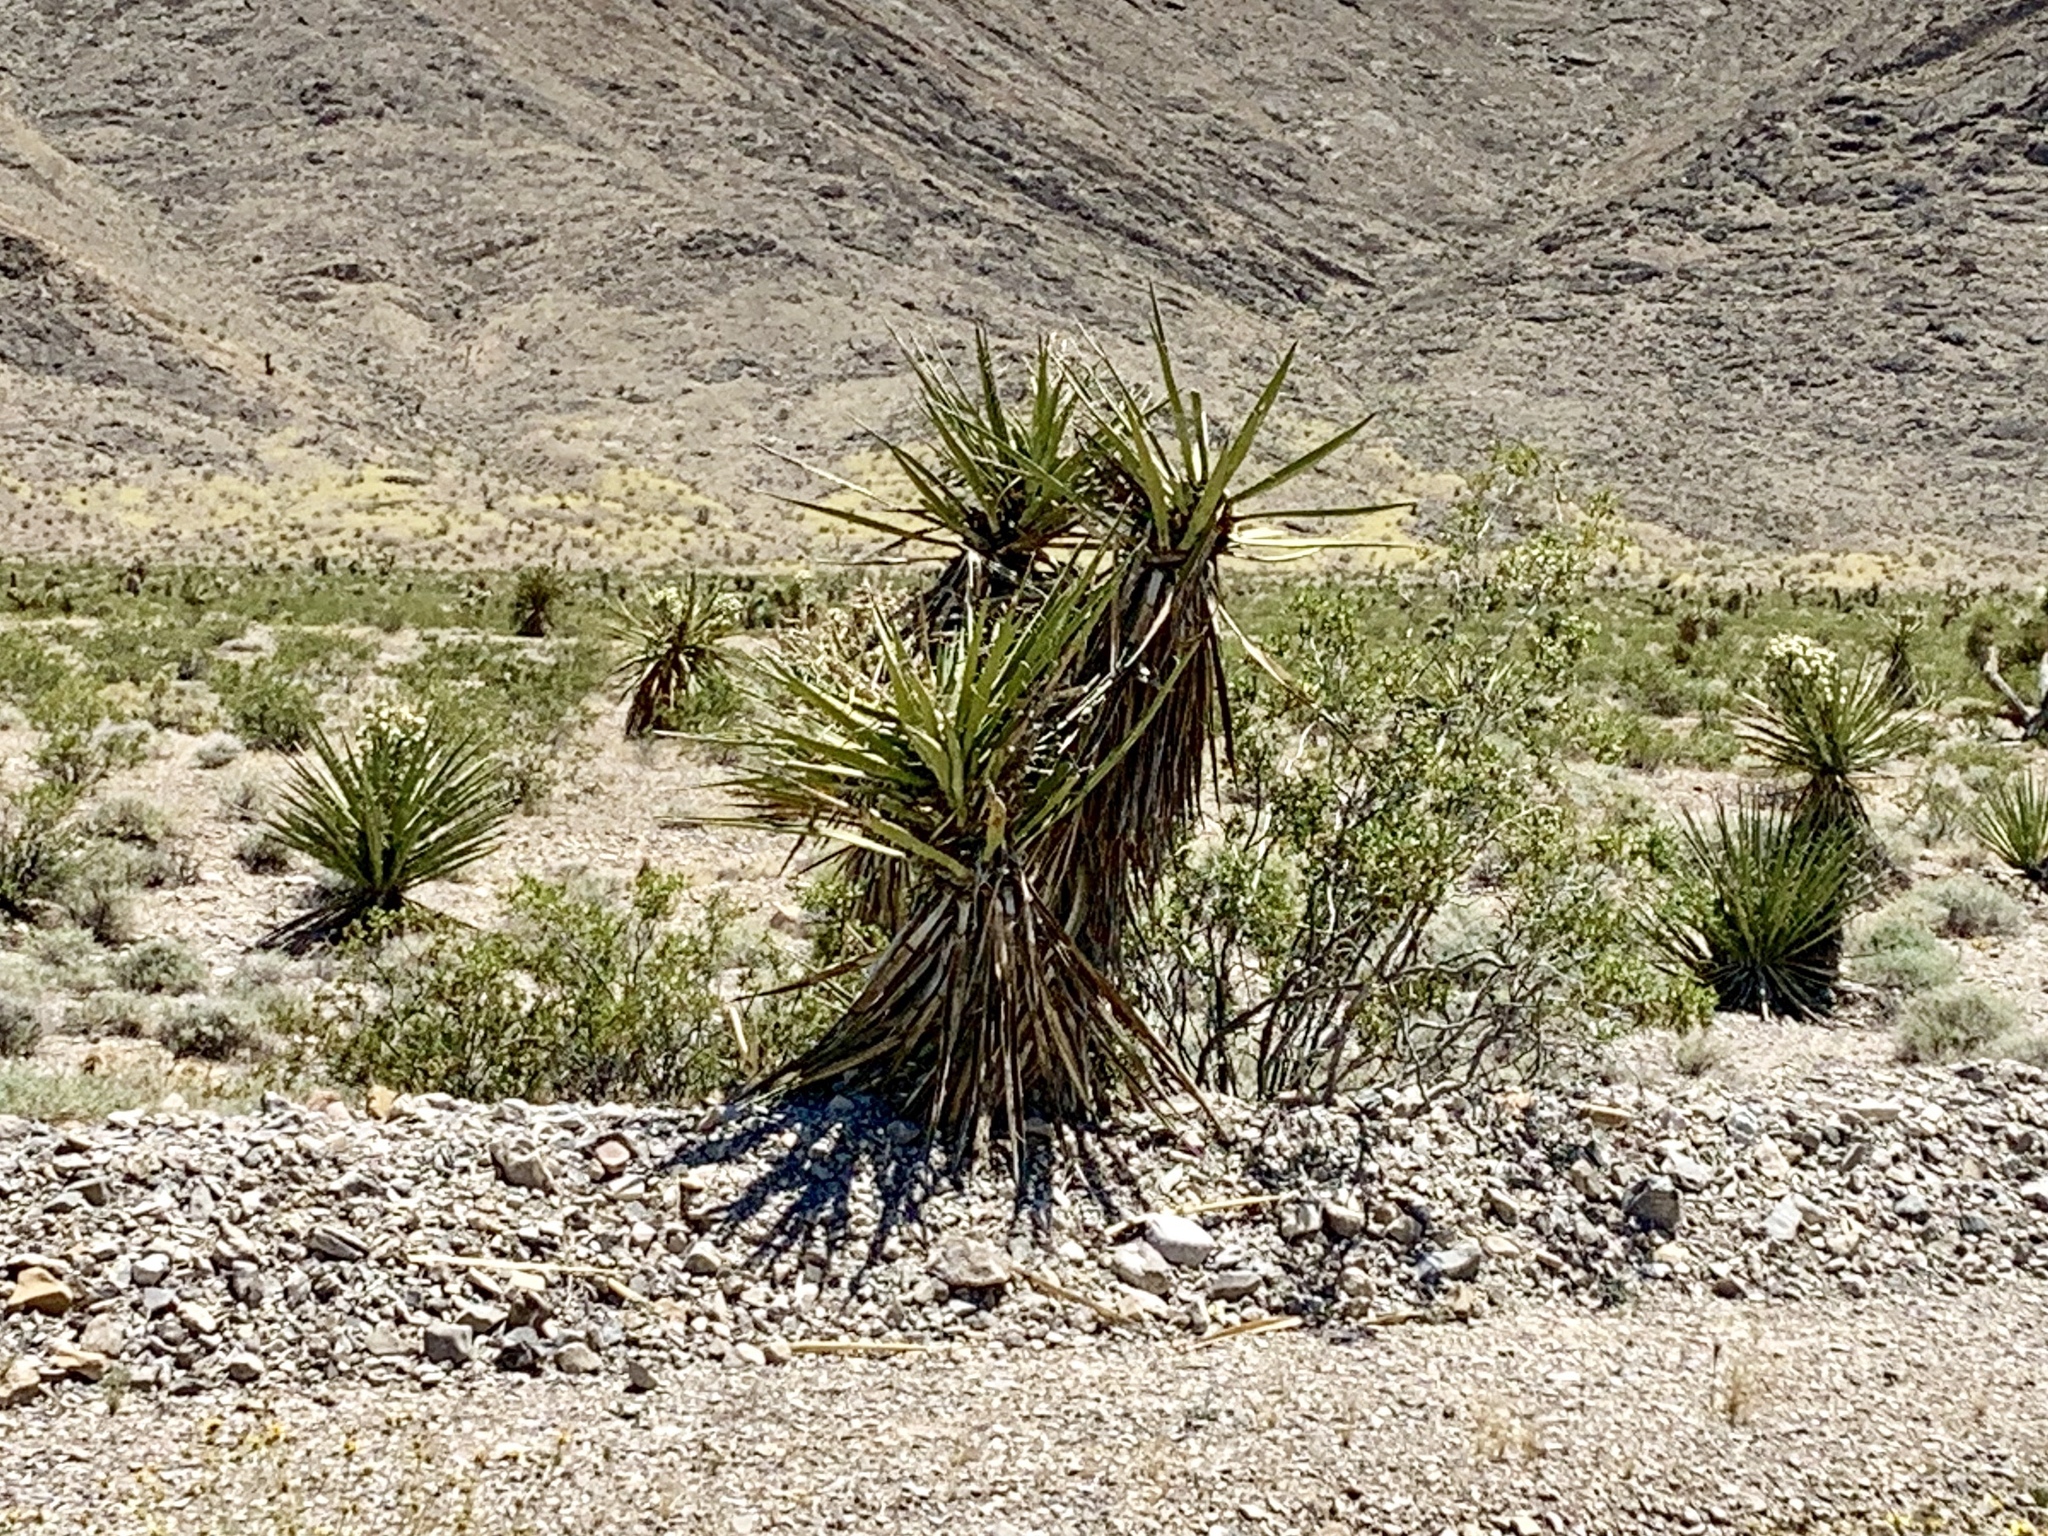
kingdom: Plantae
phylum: Tracheophyta
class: Liliopsida
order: Asparagales
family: Asparagaceae
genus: Yucca
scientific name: Yucca schidigera
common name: Mojave yucca
